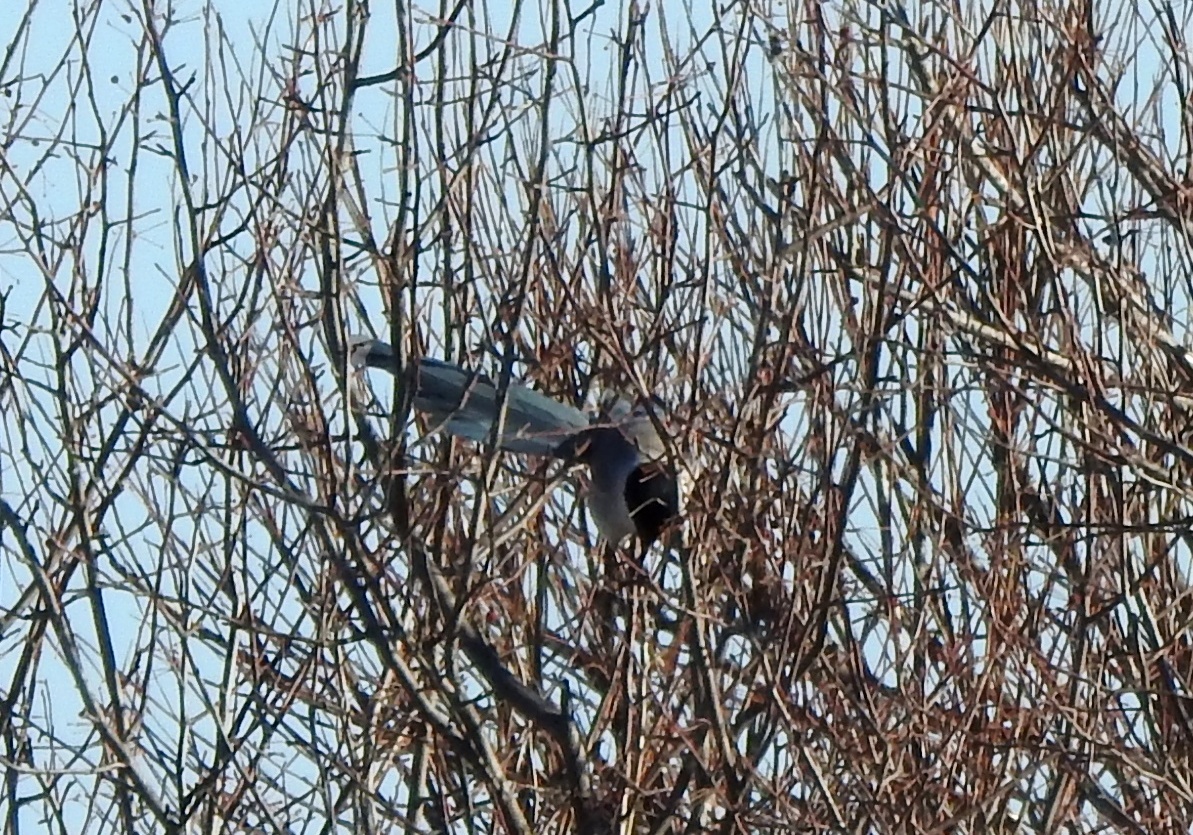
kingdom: Animalia
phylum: Chordata
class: Aves
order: Passeriformes
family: Corvidae
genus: Cyanopica
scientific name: Cyanopica cyanus
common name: Azure-winged magpie
